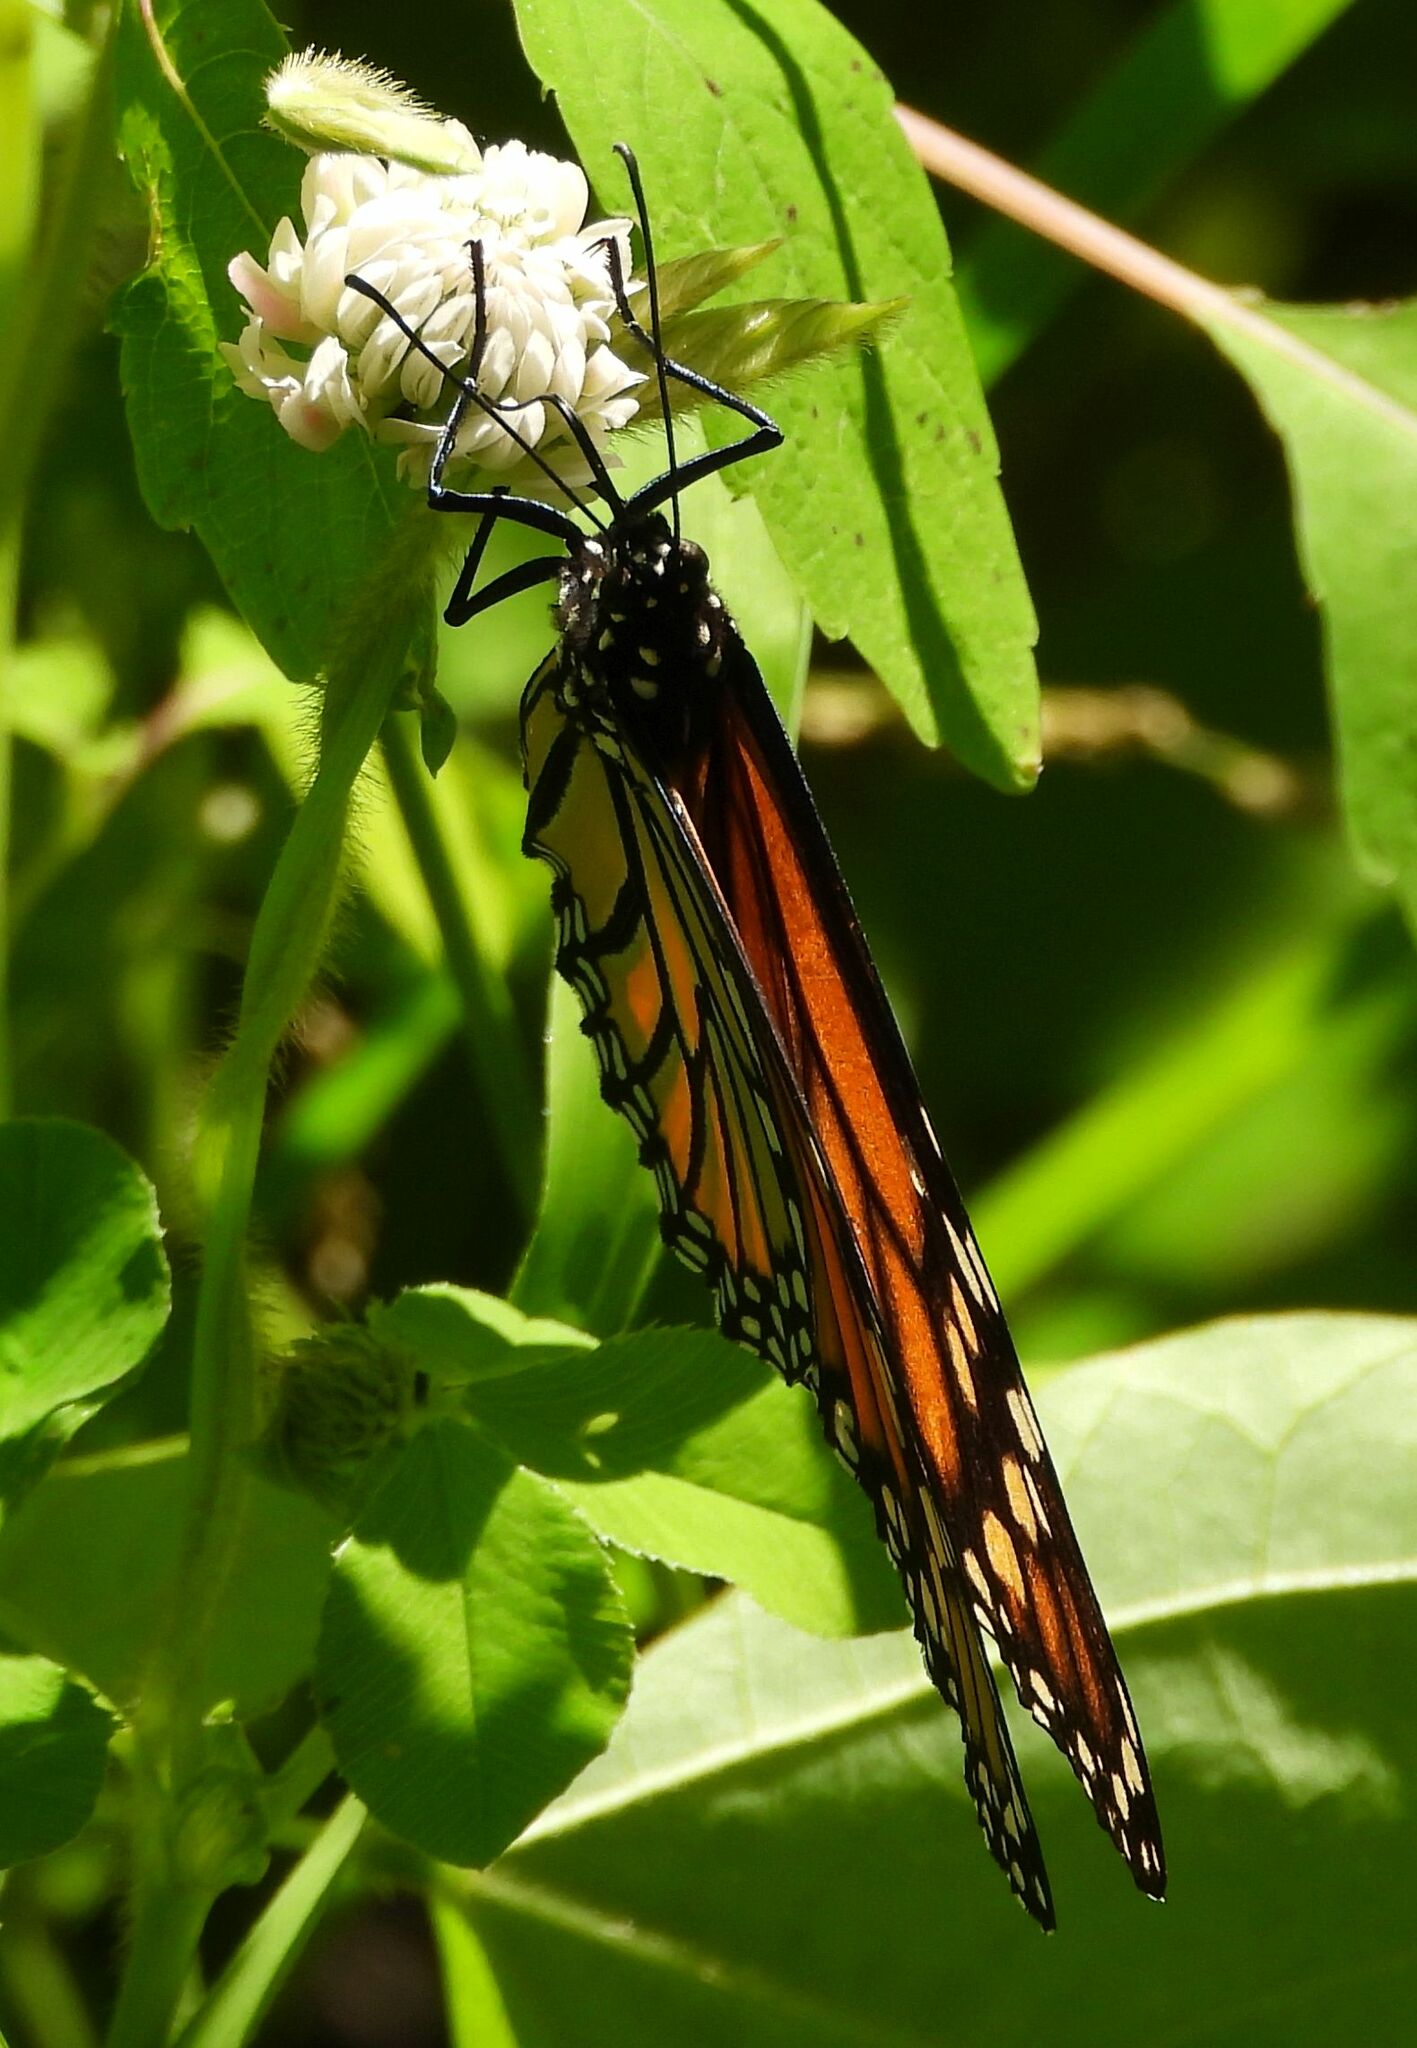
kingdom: Animalia
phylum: Arthropoda
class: Insecta
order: Lepidoptera
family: Nymphalidae
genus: Danaus
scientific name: Danaus plexippus
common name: Monarch
